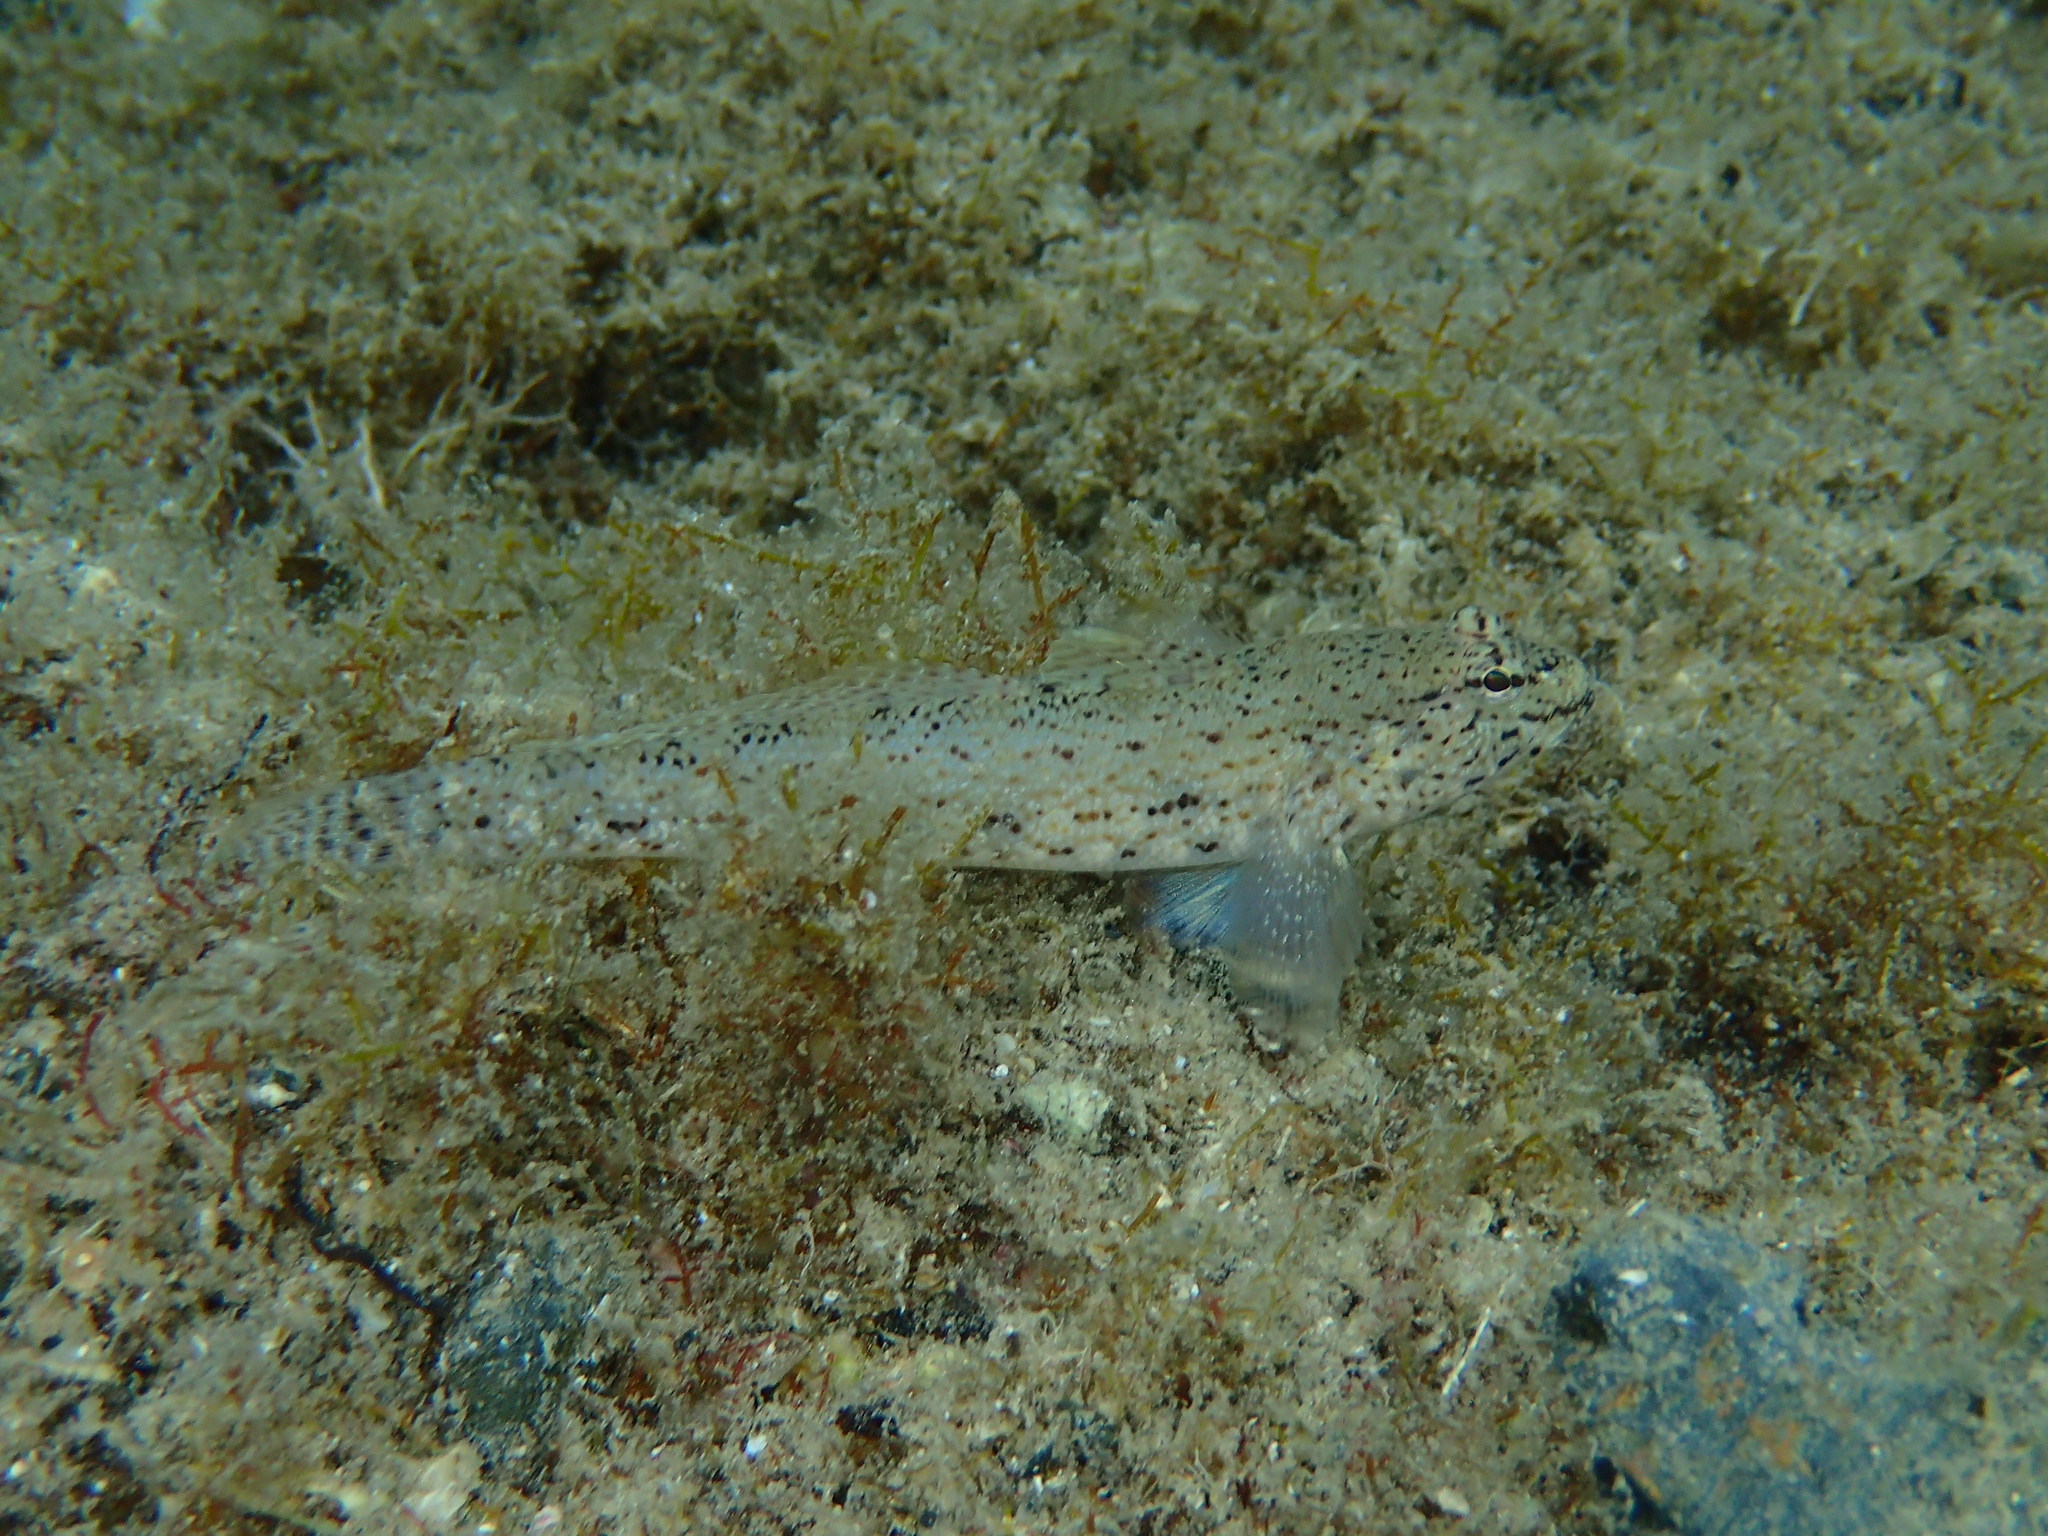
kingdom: Animalia
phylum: Chordata
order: Perciformes
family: Gobiidae
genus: Gobius
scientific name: Gobius incognitus
